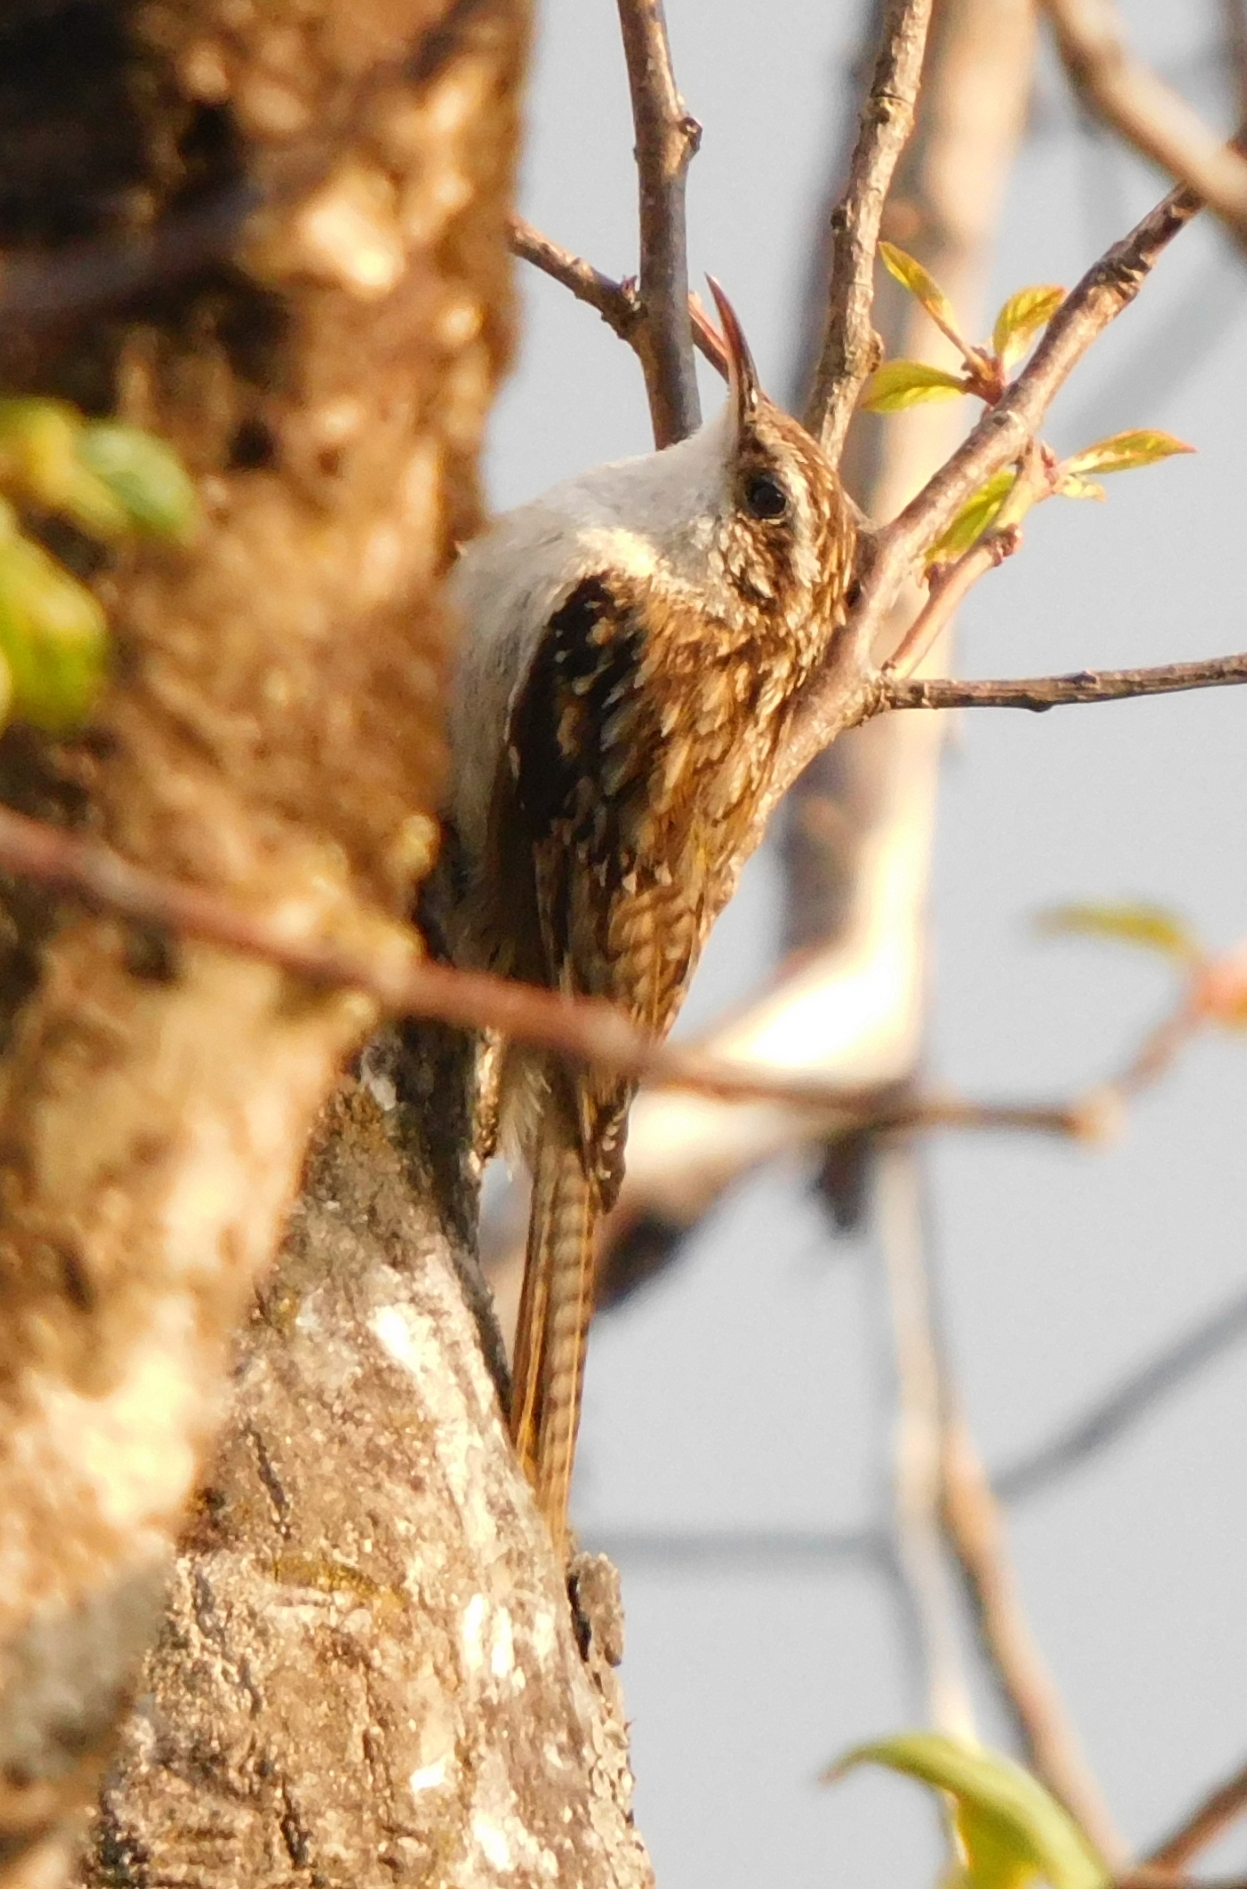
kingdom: Animalia
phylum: Chordata
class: Aves
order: Passeriformes
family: Certhiidae
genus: Certhia
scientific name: Certhia himalayana
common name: Bar-tailed treecreeper
